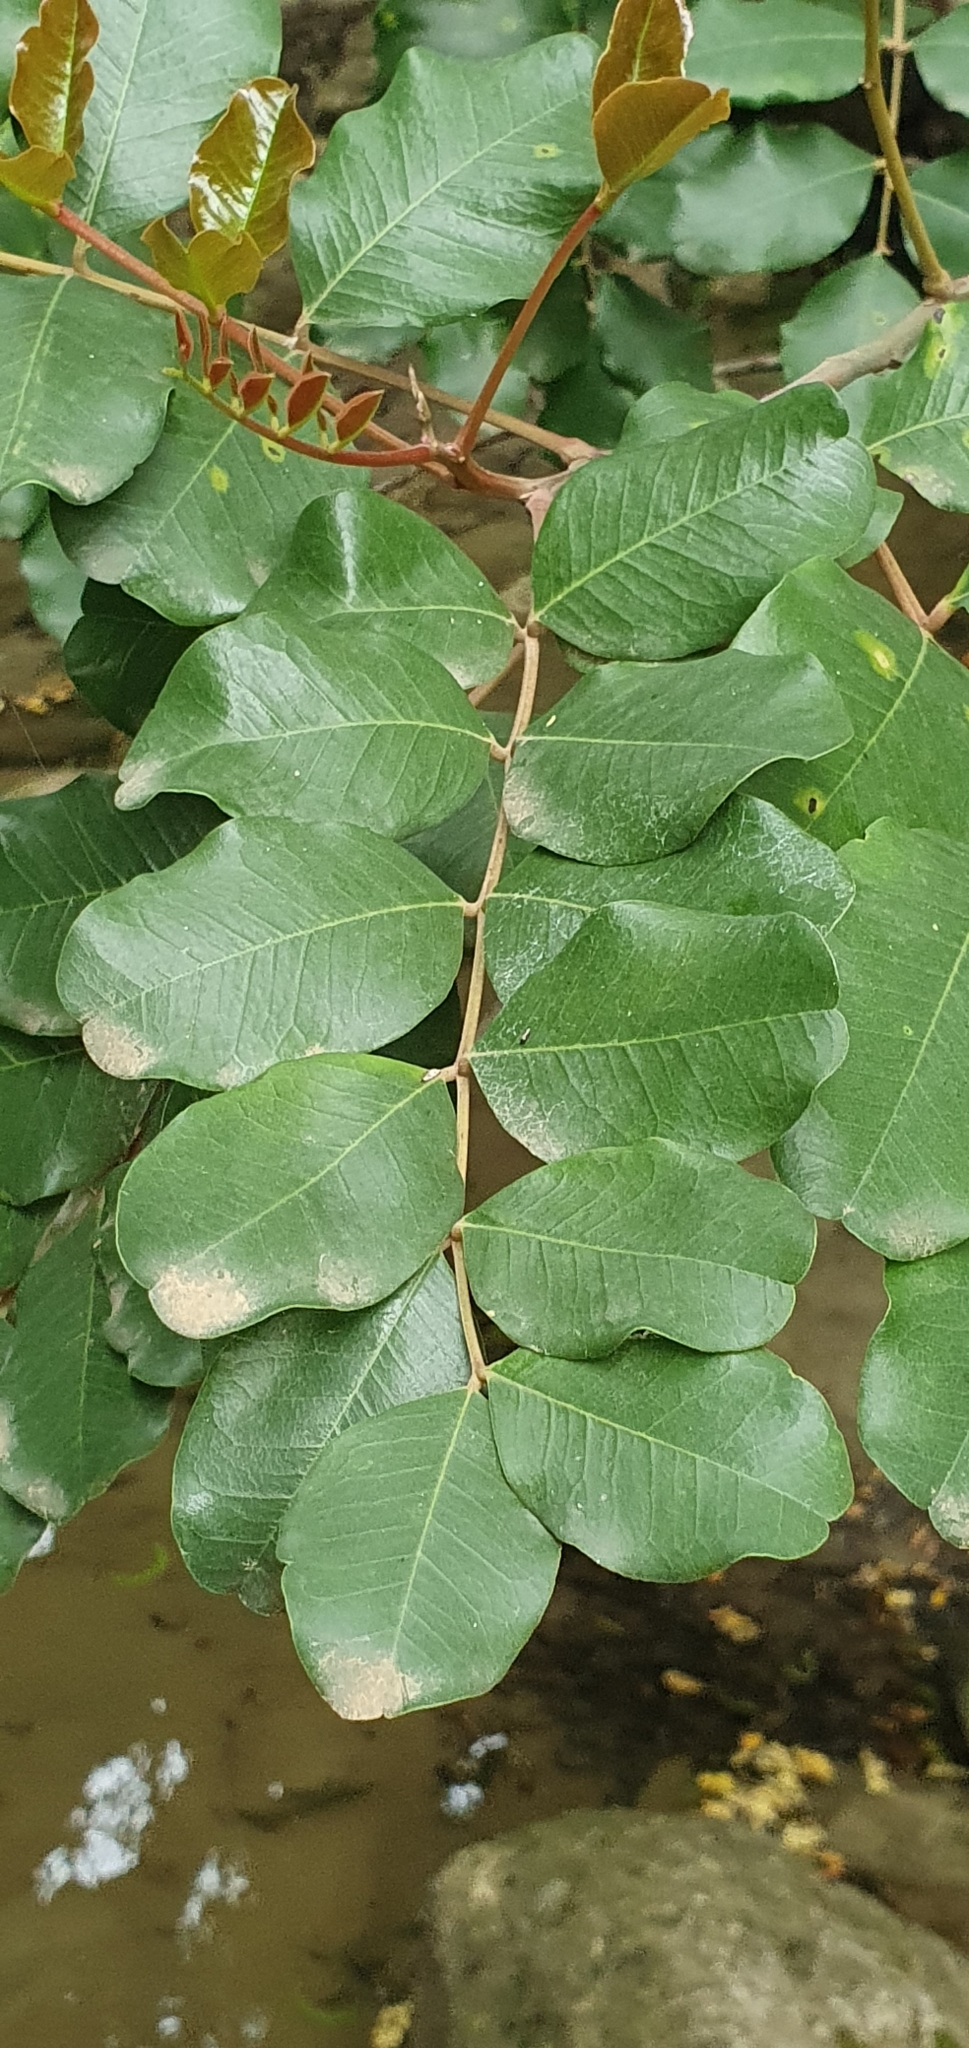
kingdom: Plantae
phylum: Tracheophyta
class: Magnoliopsida
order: Fabales
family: Fabaceae
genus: Ceratonia
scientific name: Ceratonia siliqua
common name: Carob
